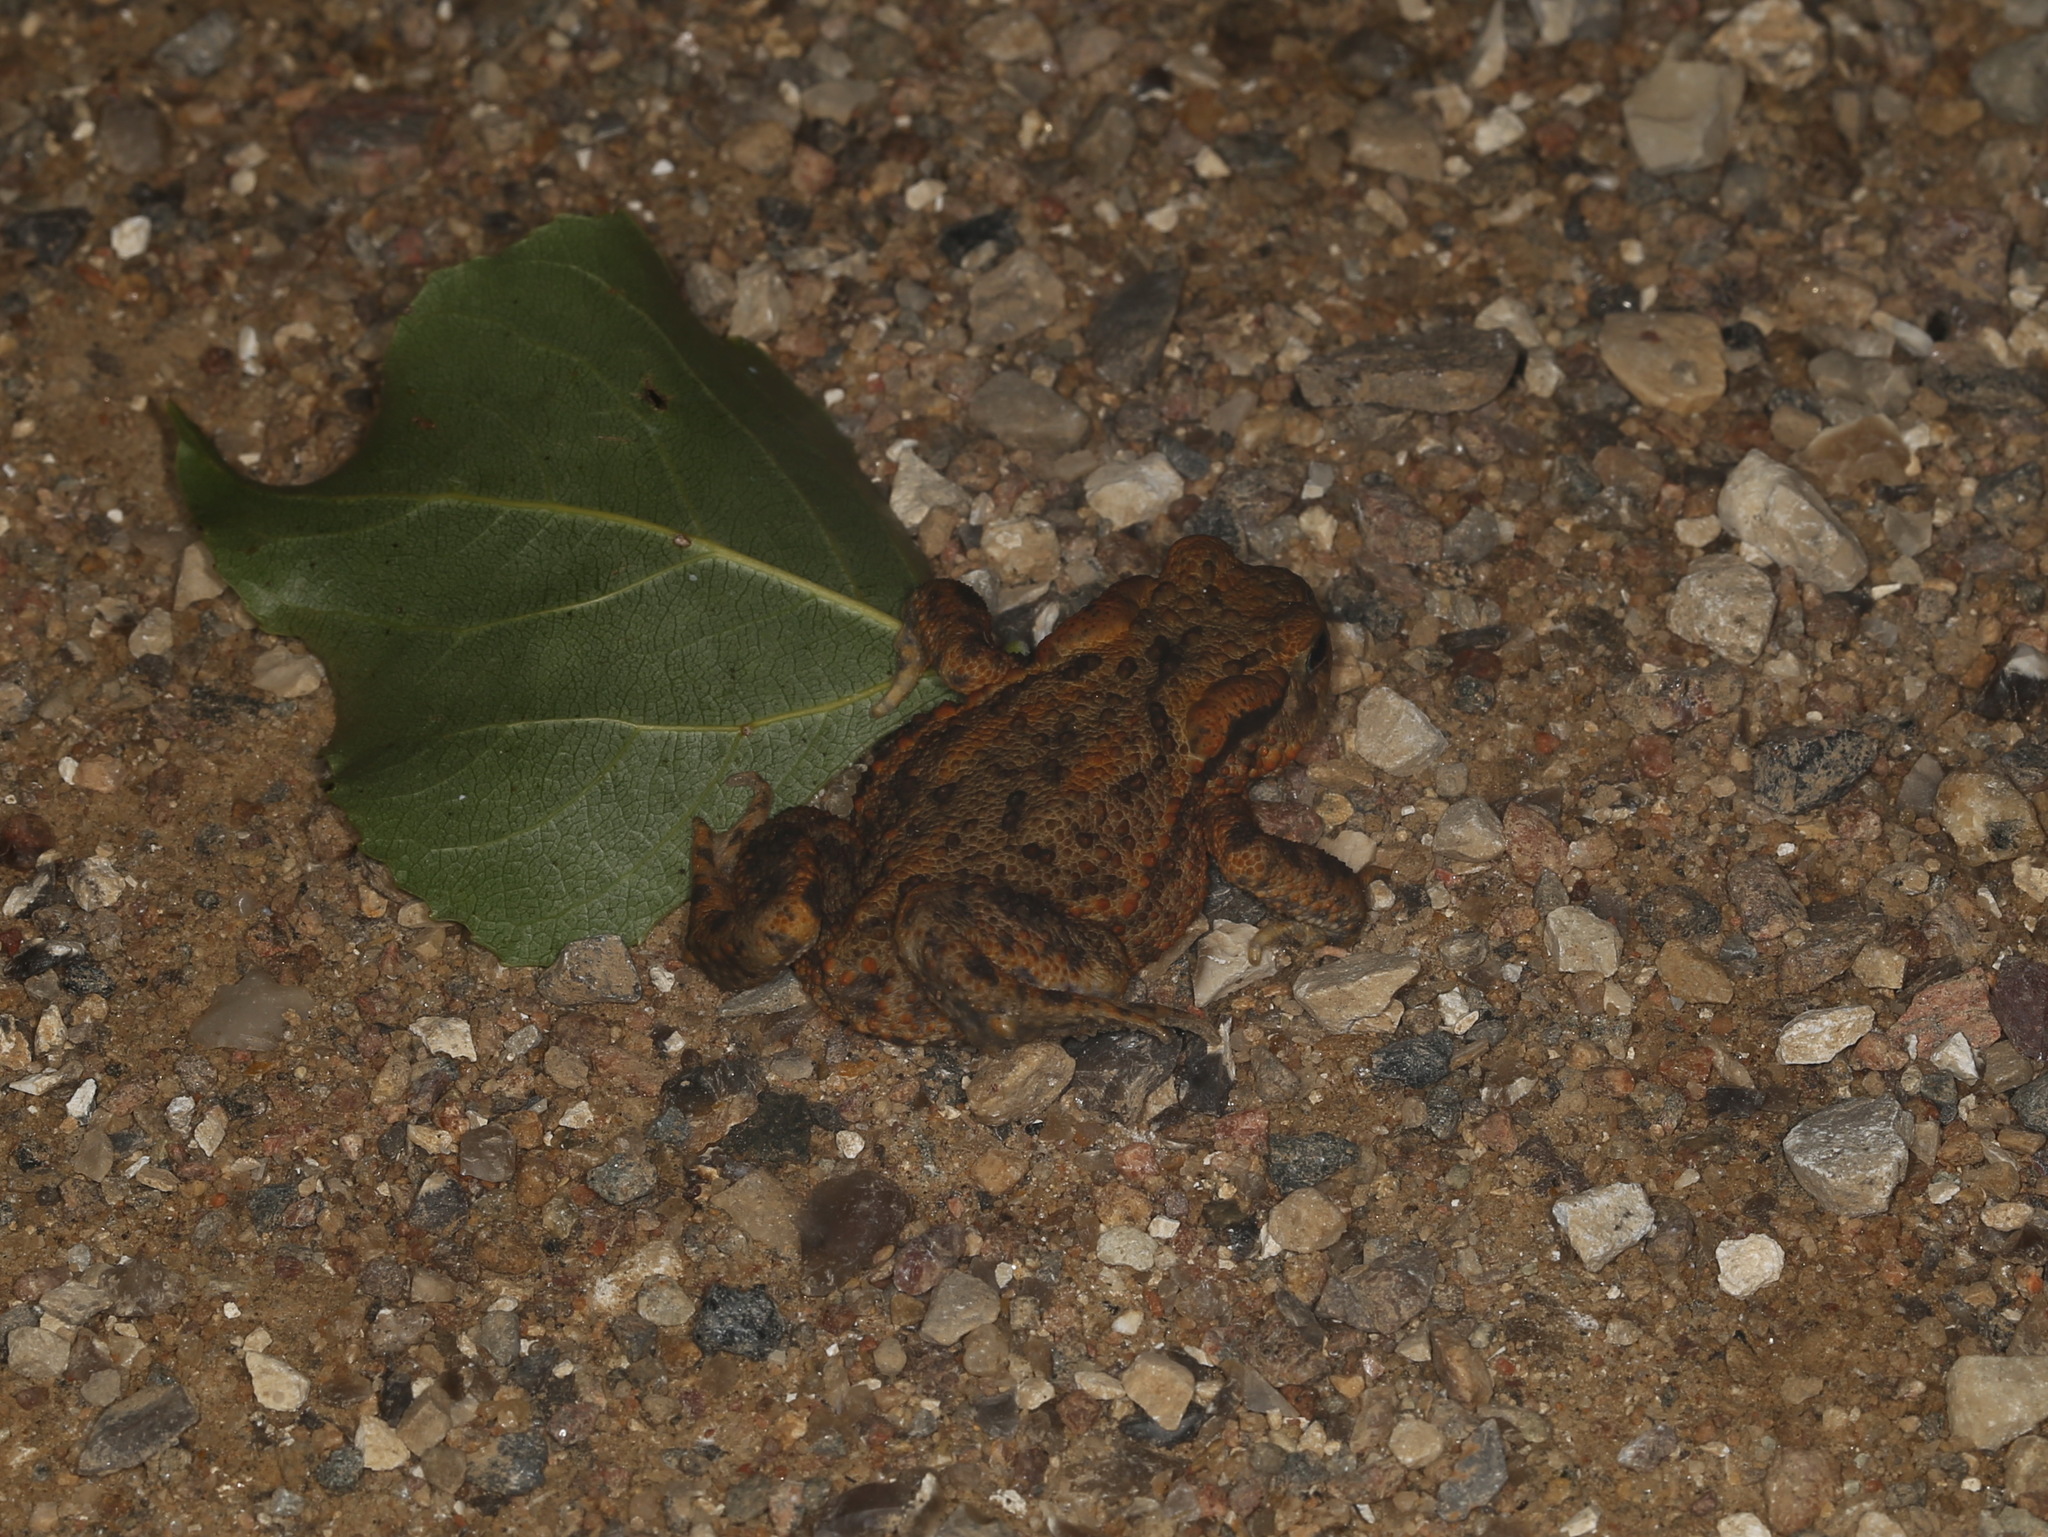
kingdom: Animalia
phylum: Chordata
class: Amphibia
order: Anura
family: Bufonidae
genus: Bufo
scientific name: Bufo bufo
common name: Common toad
